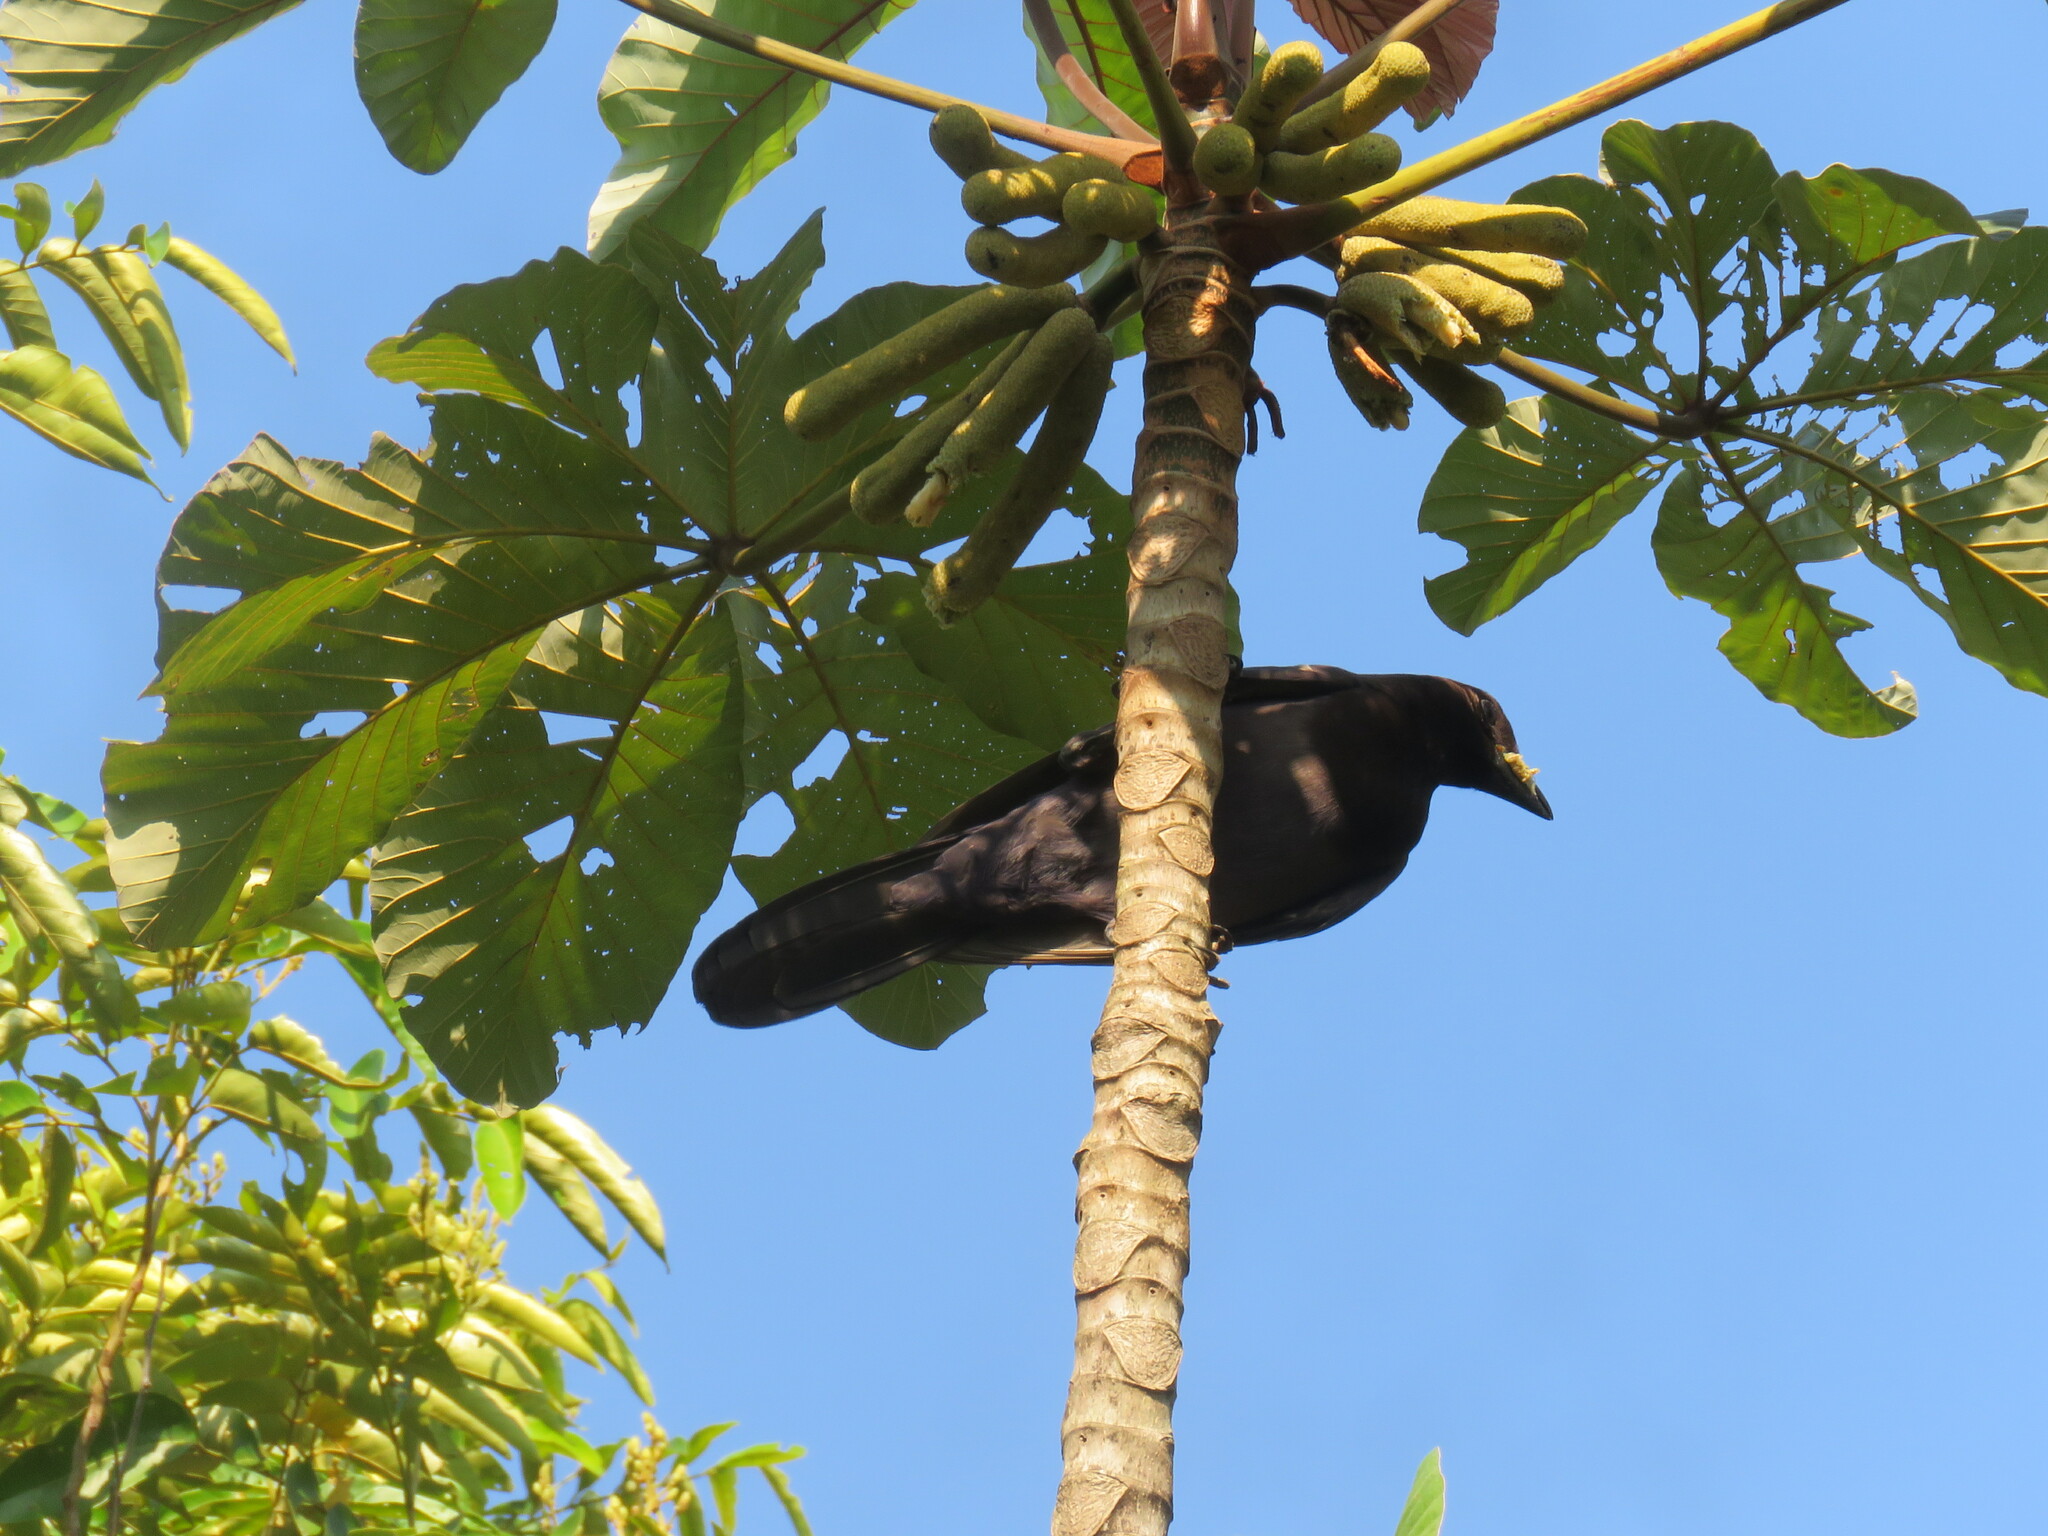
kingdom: Animalia
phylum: Chordata
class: Aves
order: Passeriformes
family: Corvidae
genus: Cyanocorax
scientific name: Cyanocorax cyanomelas
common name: Purplish jay
